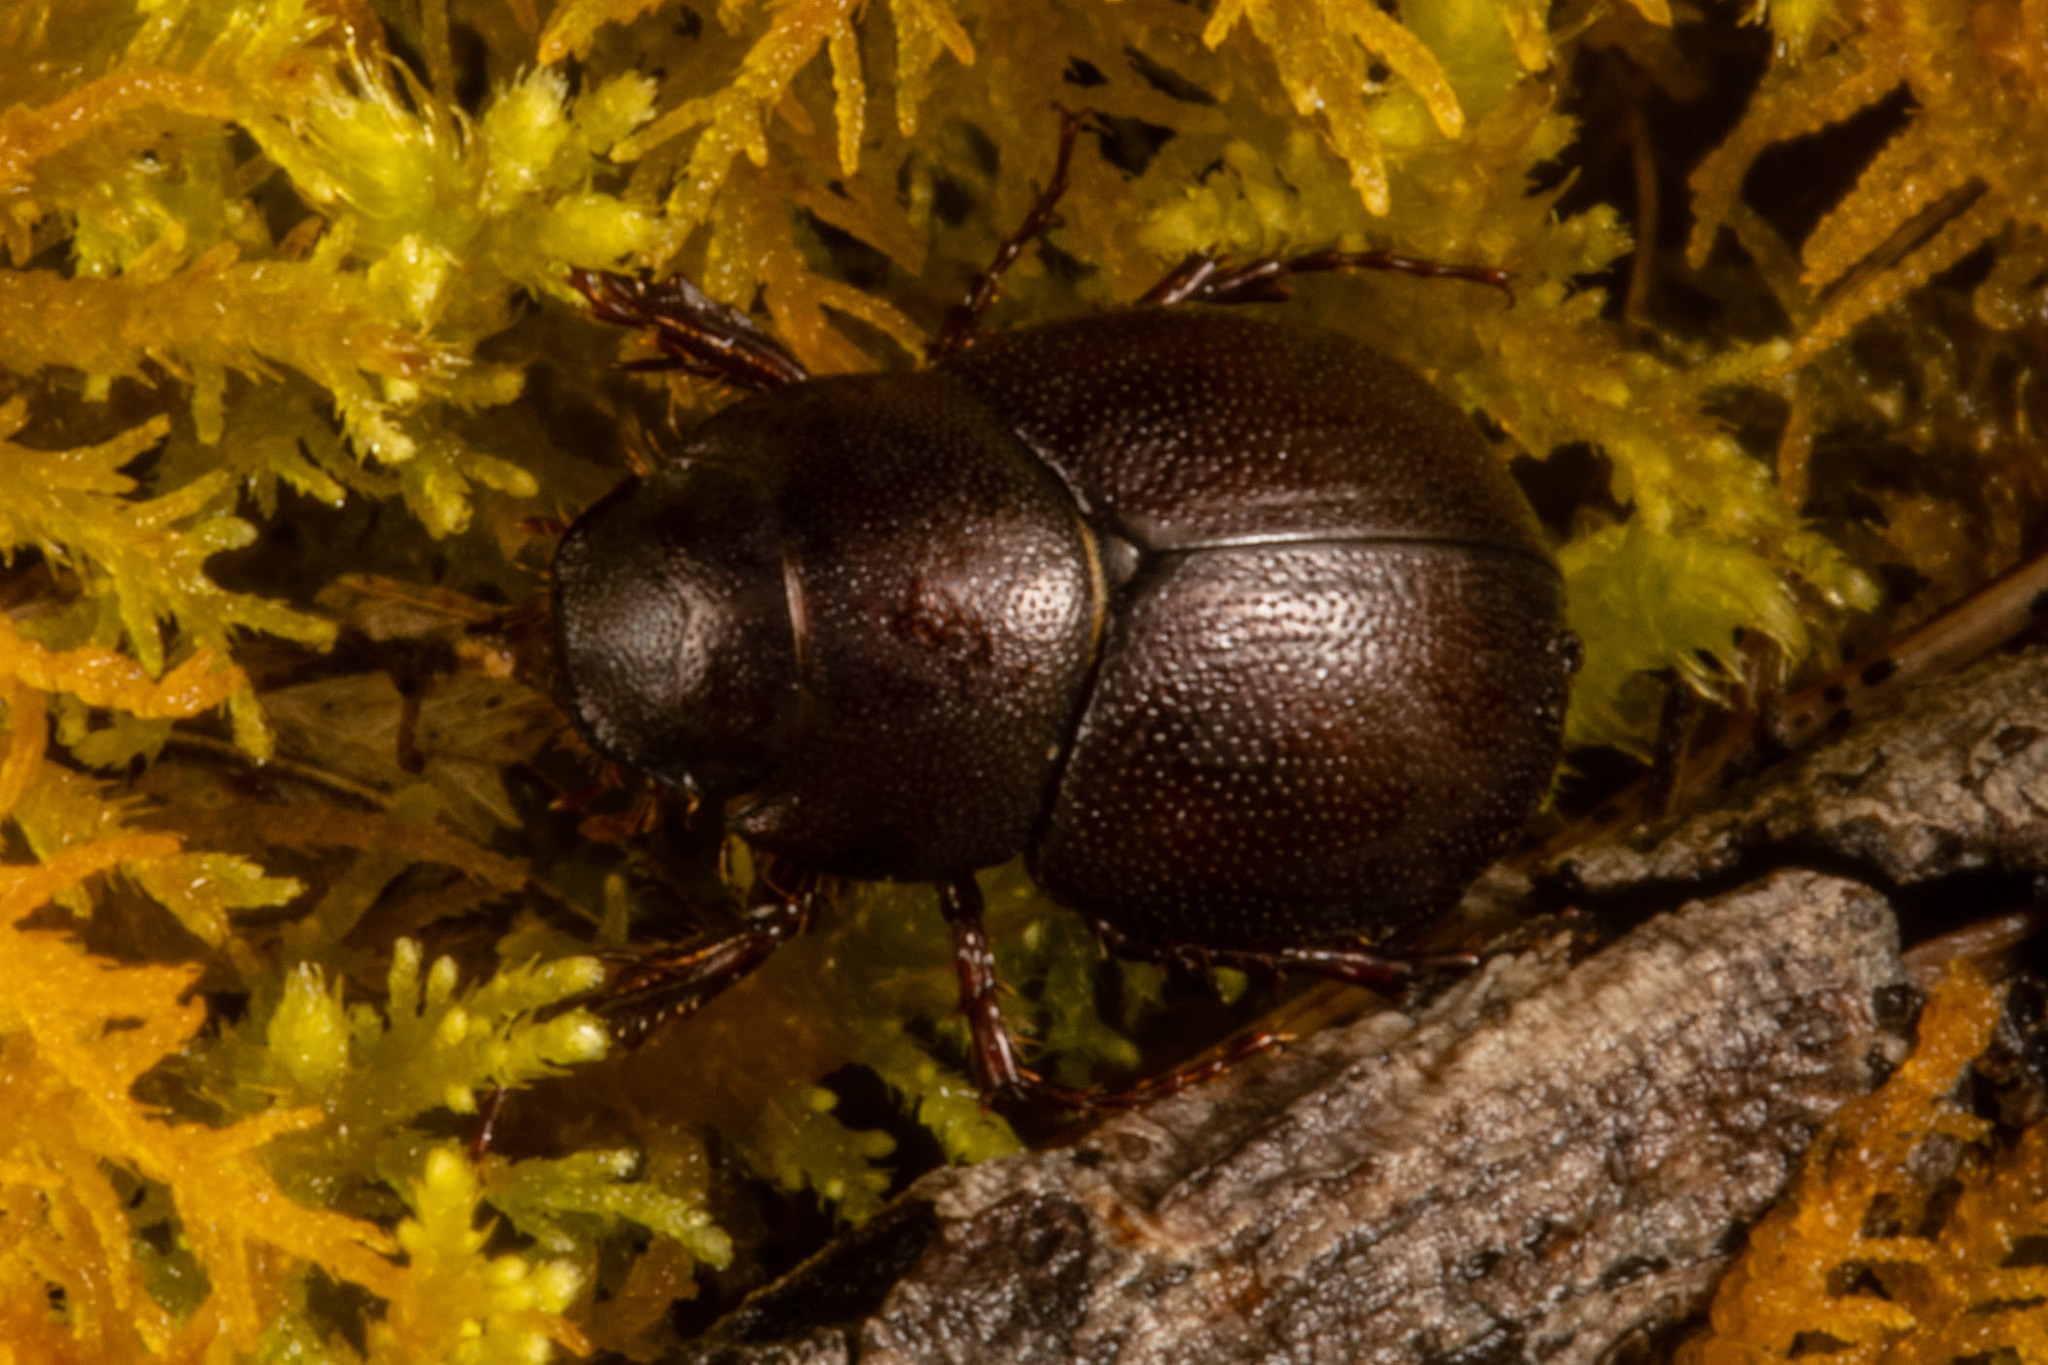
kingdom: Animalia
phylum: Arthropoda
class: Insecta
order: Coleoptera
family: Scarabaeidae
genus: Gnaphalopoda
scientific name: Gnaphalopoda brookesi
